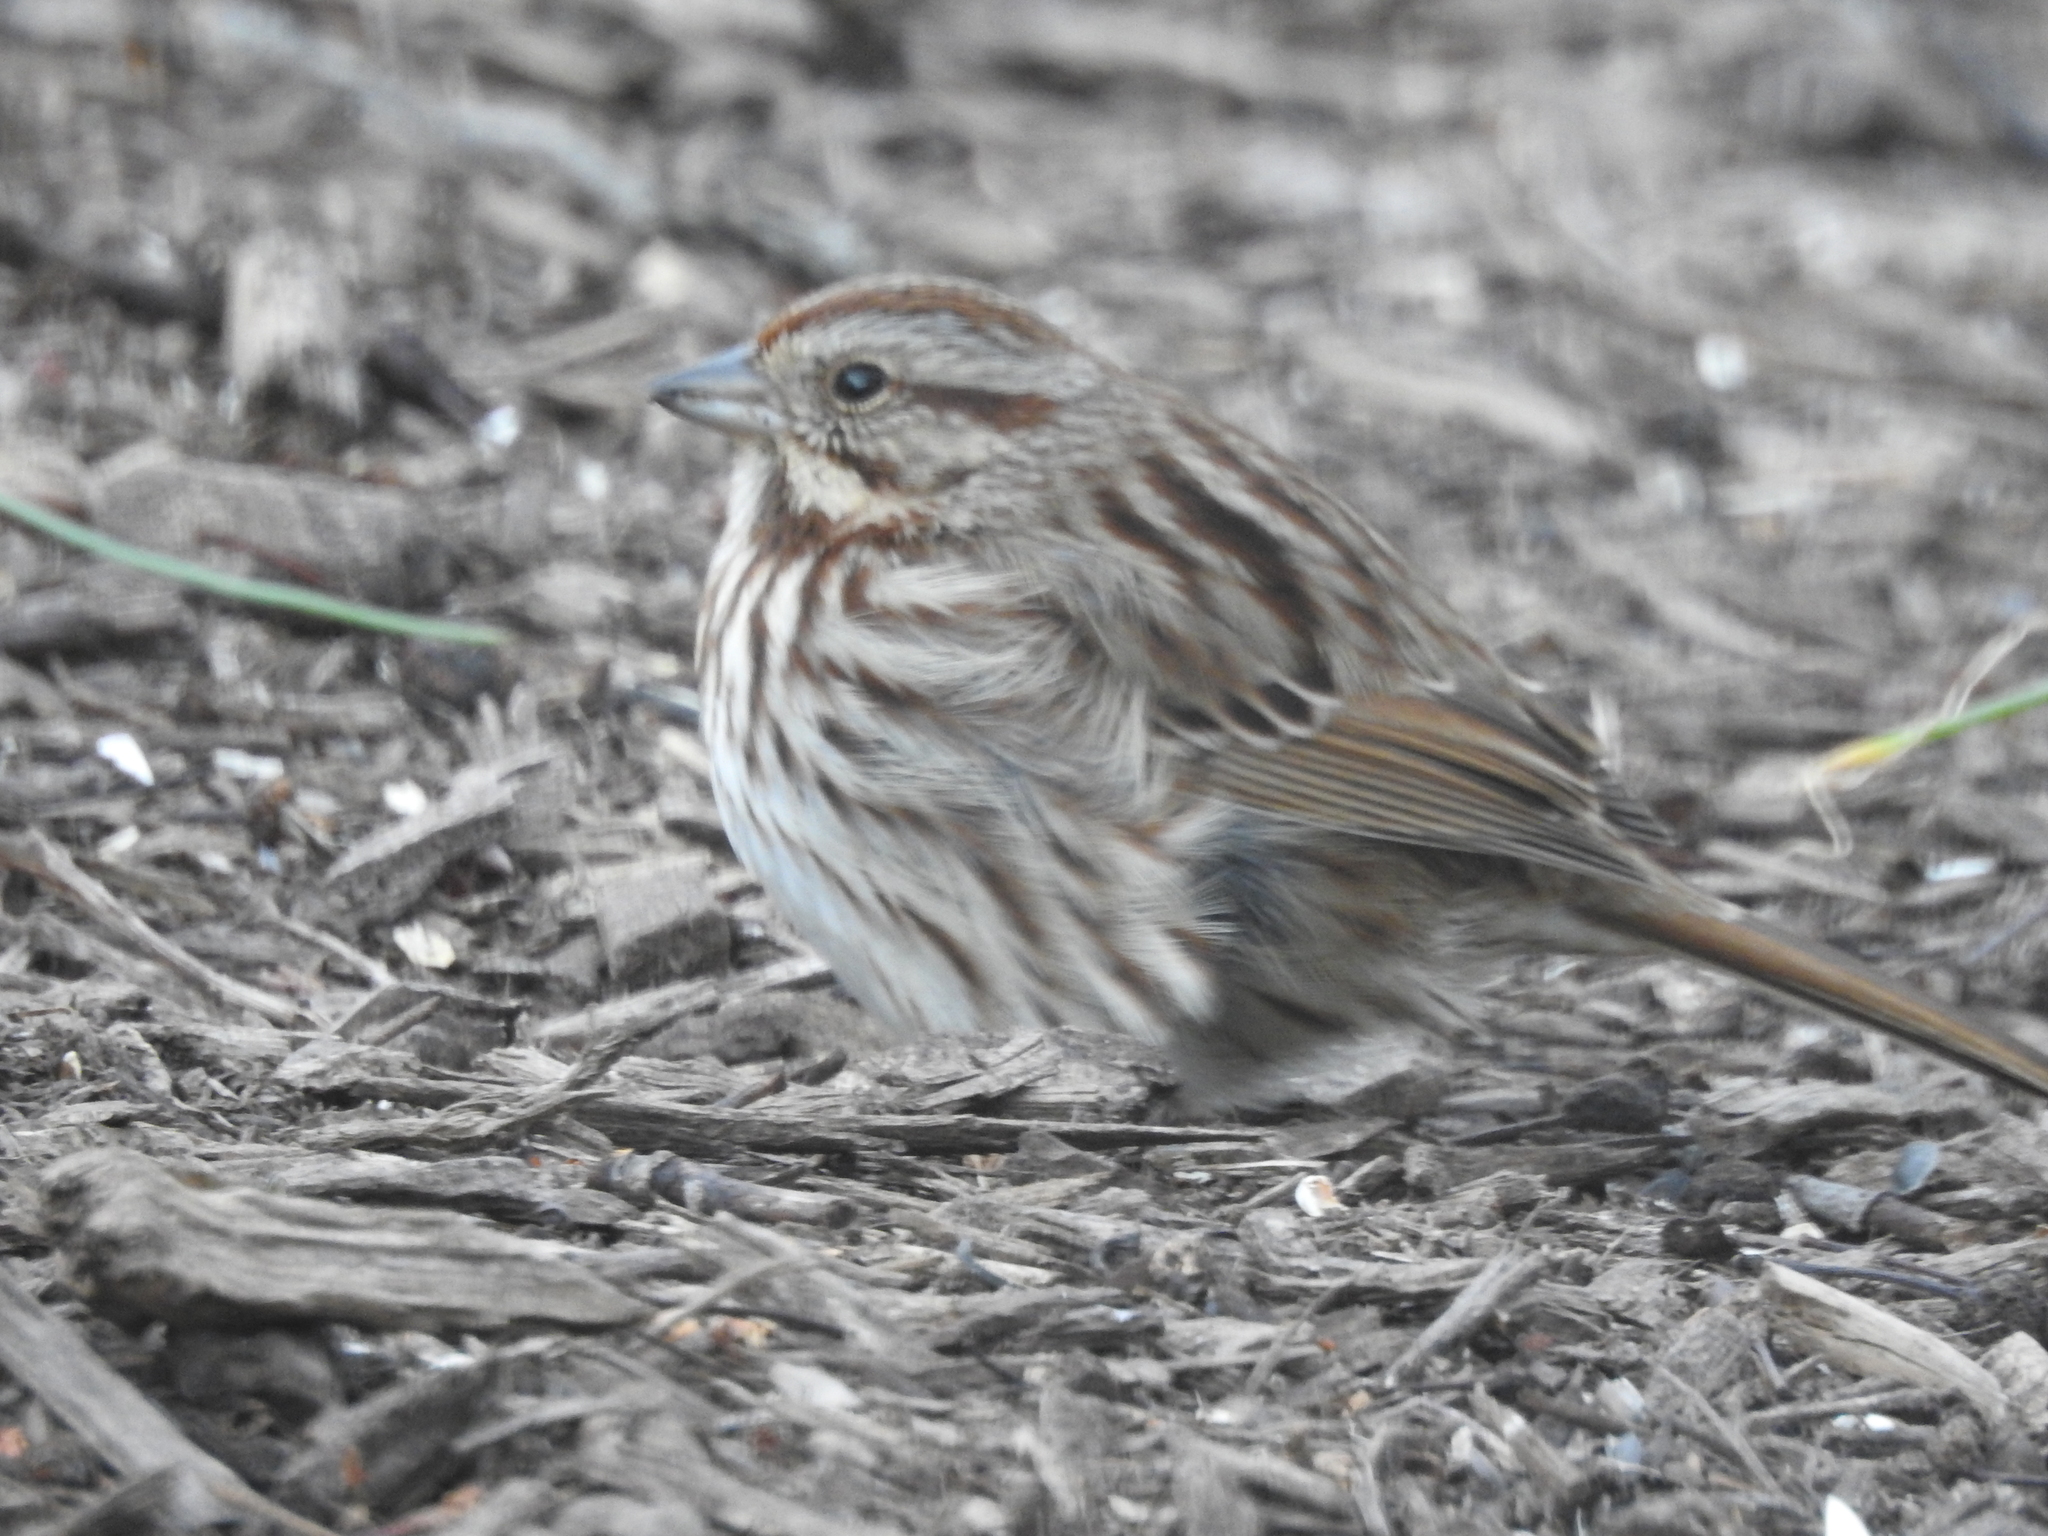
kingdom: Animalia
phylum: Chordata
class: Aves
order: Passeriformes
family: Passerellidae
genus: Melospiza
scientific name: Melospiza melodia
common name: Song sparrow
